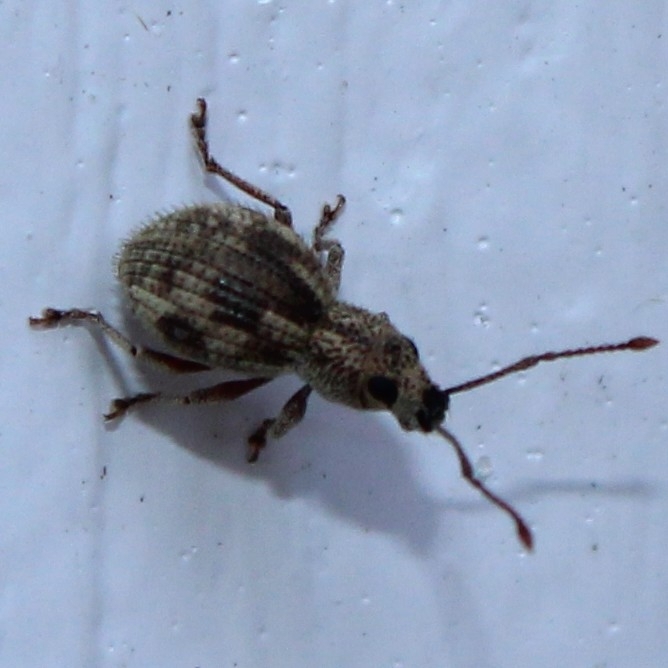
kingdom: Animalia
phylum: Arthropoda
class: Insecta
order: Coleoptera
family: Curculionidae
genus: Calomycterus
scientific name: Calomycterus setarius
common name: Weevil
